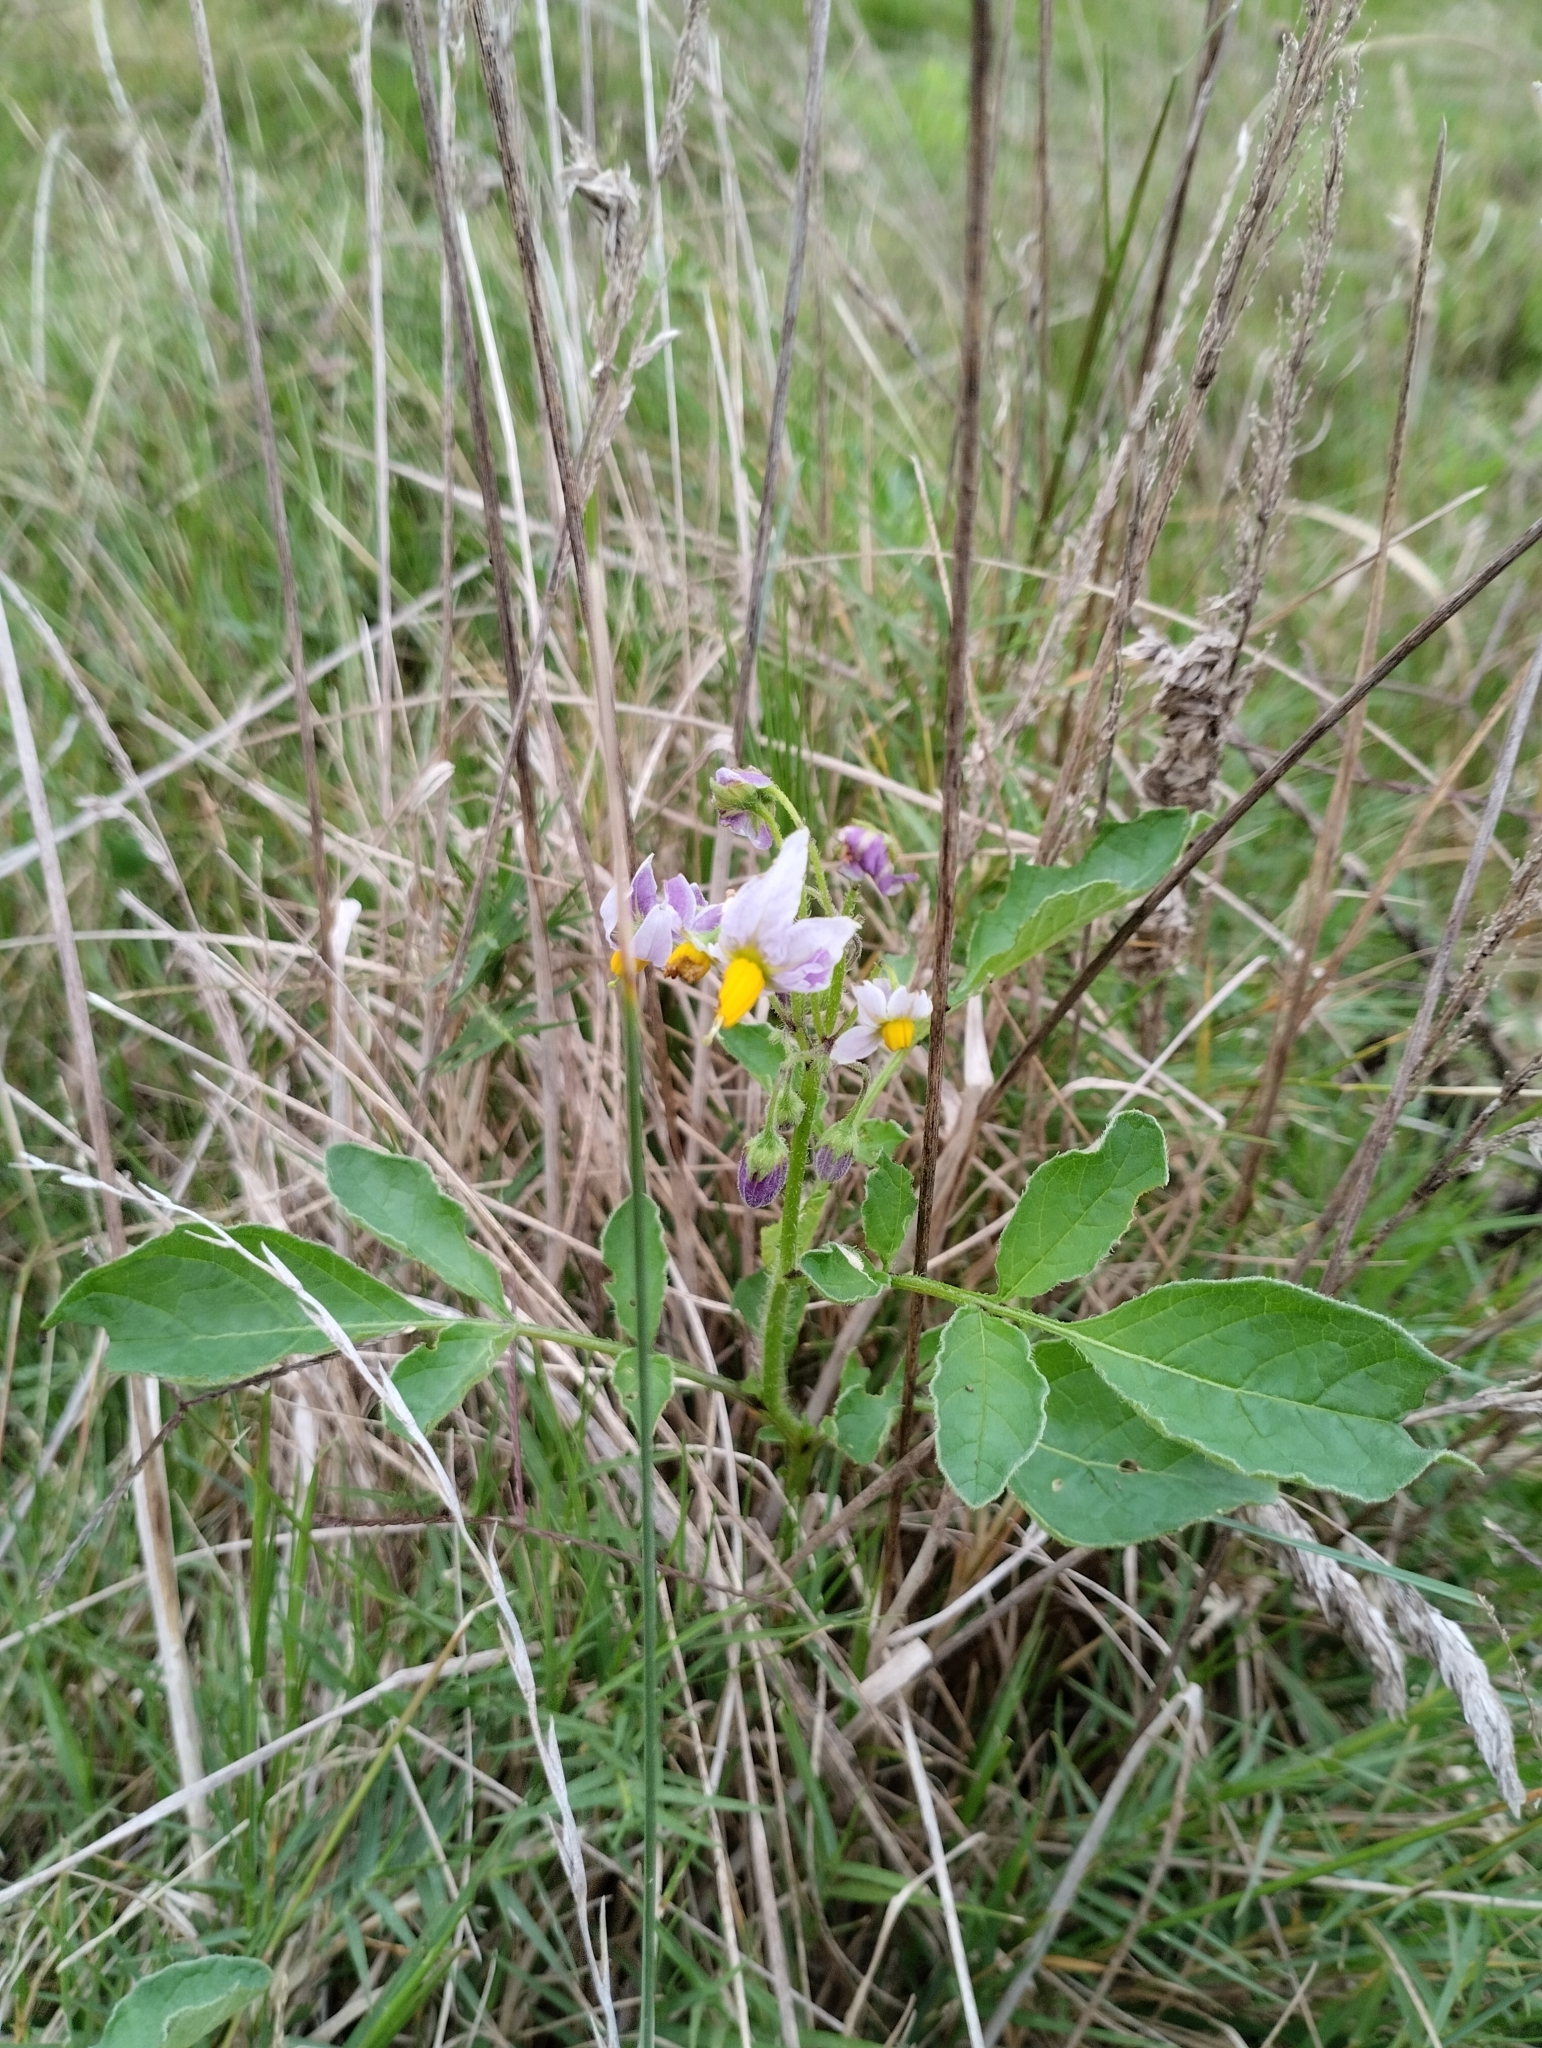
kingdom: Plantae
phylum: Tracheophyta
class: Magnoliopsida
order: Solanales
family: Solanaceae
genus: Solanum
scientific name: Solanum commersonii
